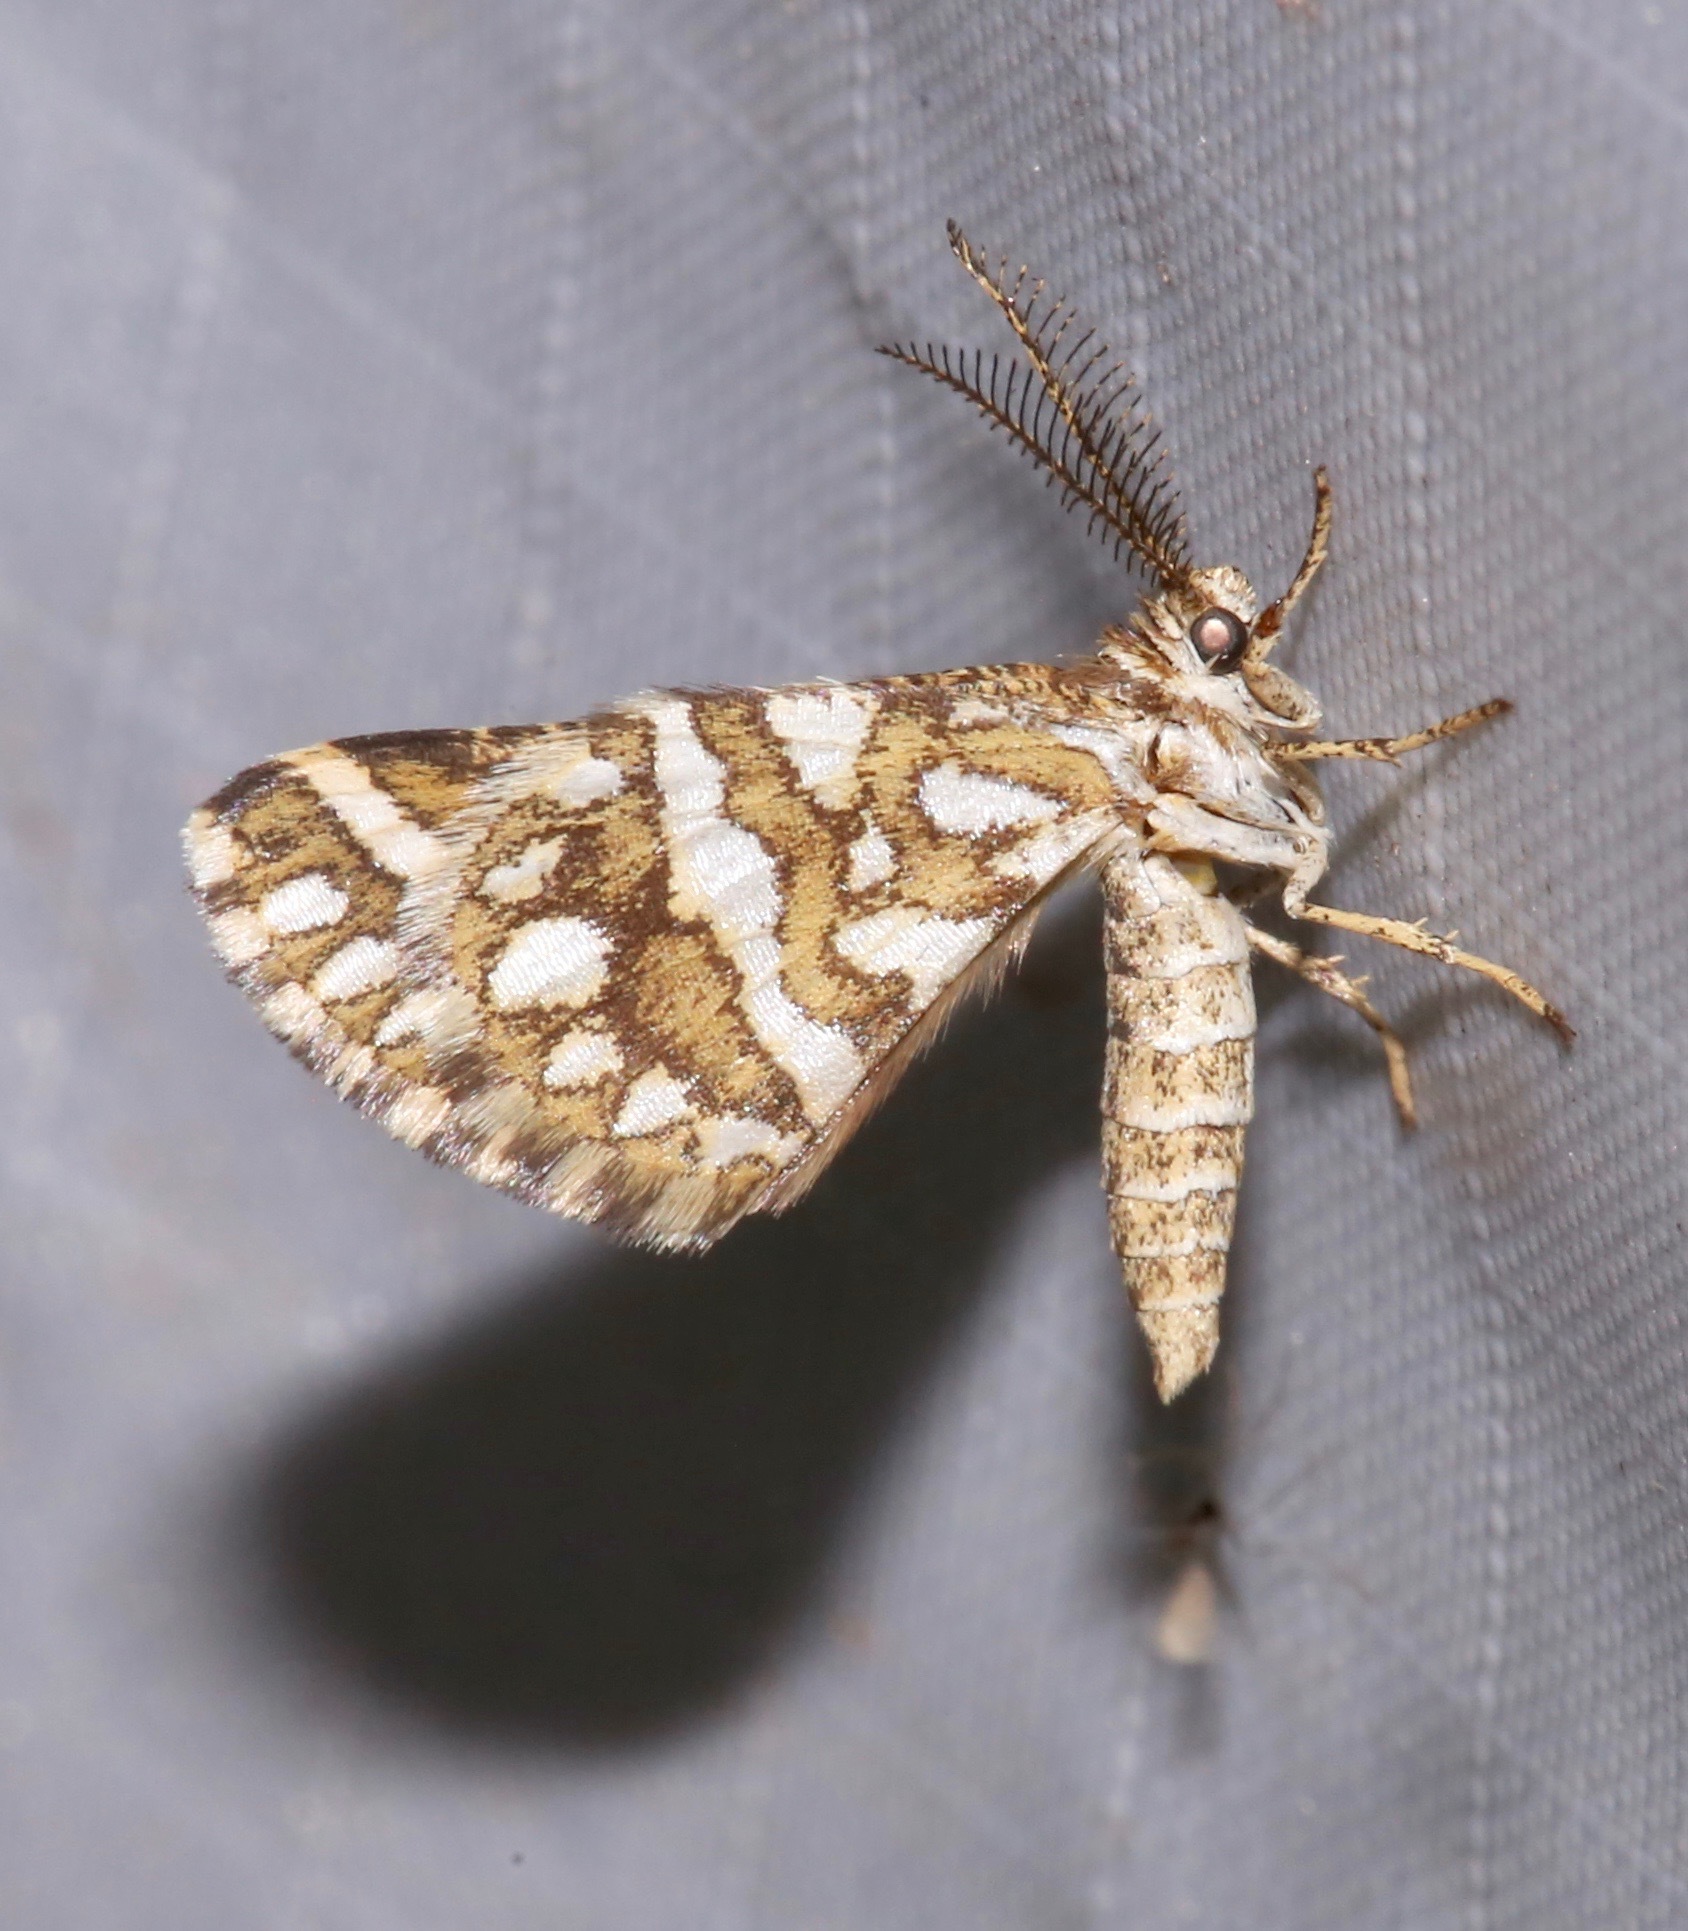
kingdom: Animalia
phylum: Arthropoda
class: Insecta
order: Lepidoptera
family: Geometridae
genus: Narraga
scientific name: Narraga fimetaria
